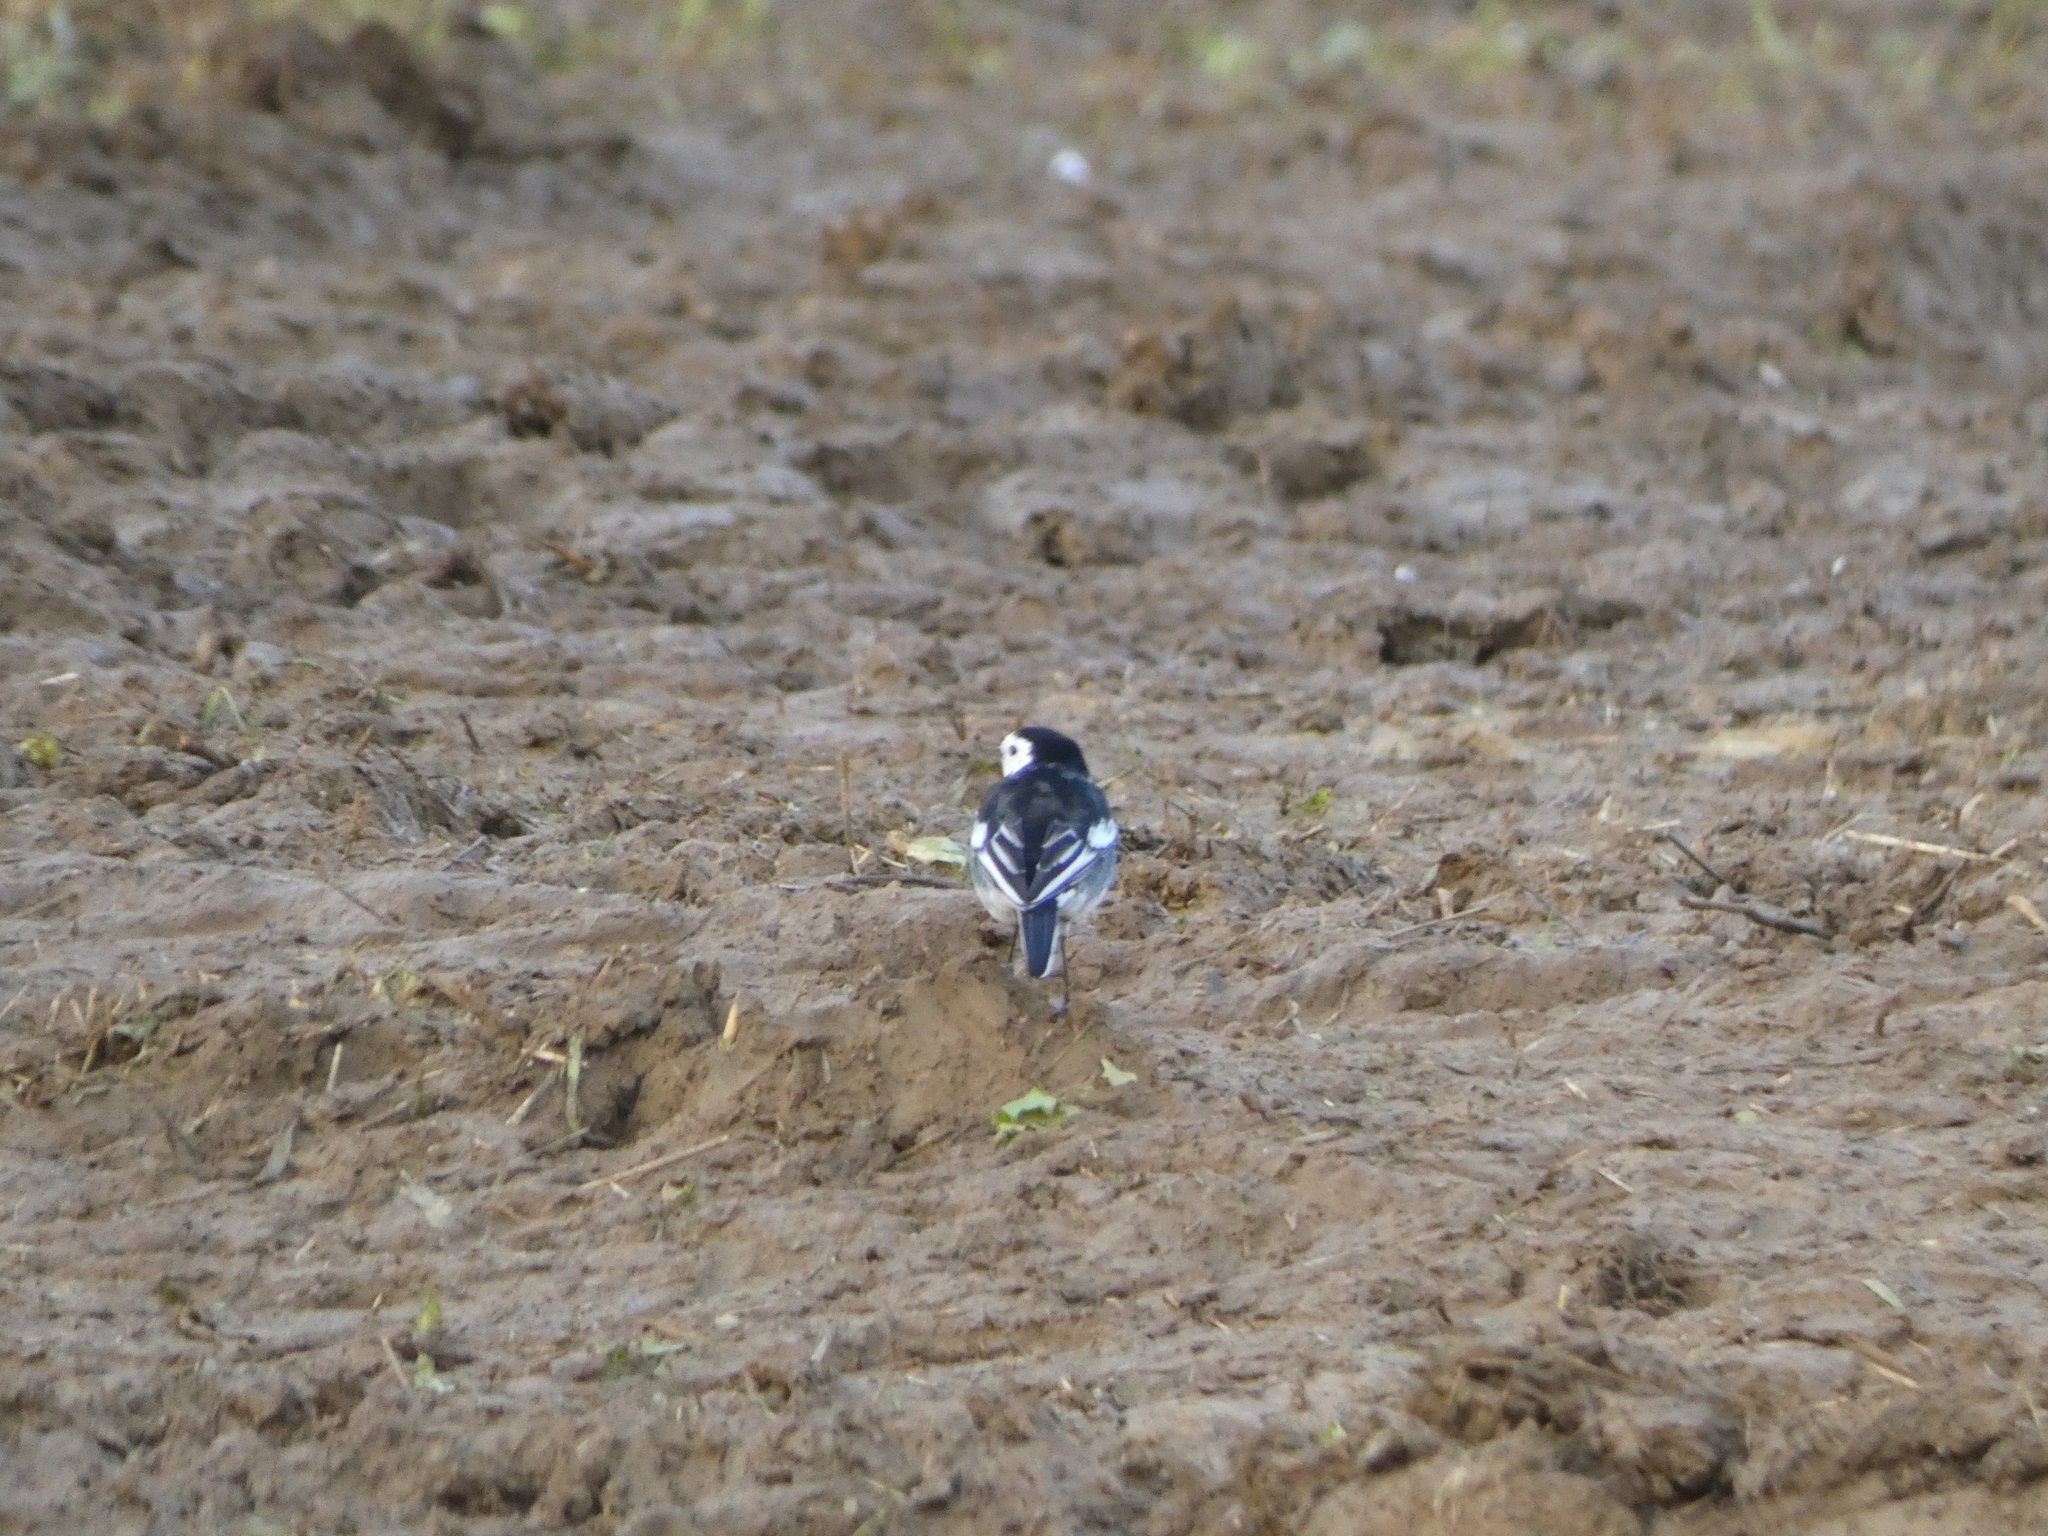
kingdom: Animalia
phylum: Chordata
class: Aves
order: Passeriformes
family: Motacillidae
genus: Motacilla
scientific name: Motacilla alba
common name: White wagtail
